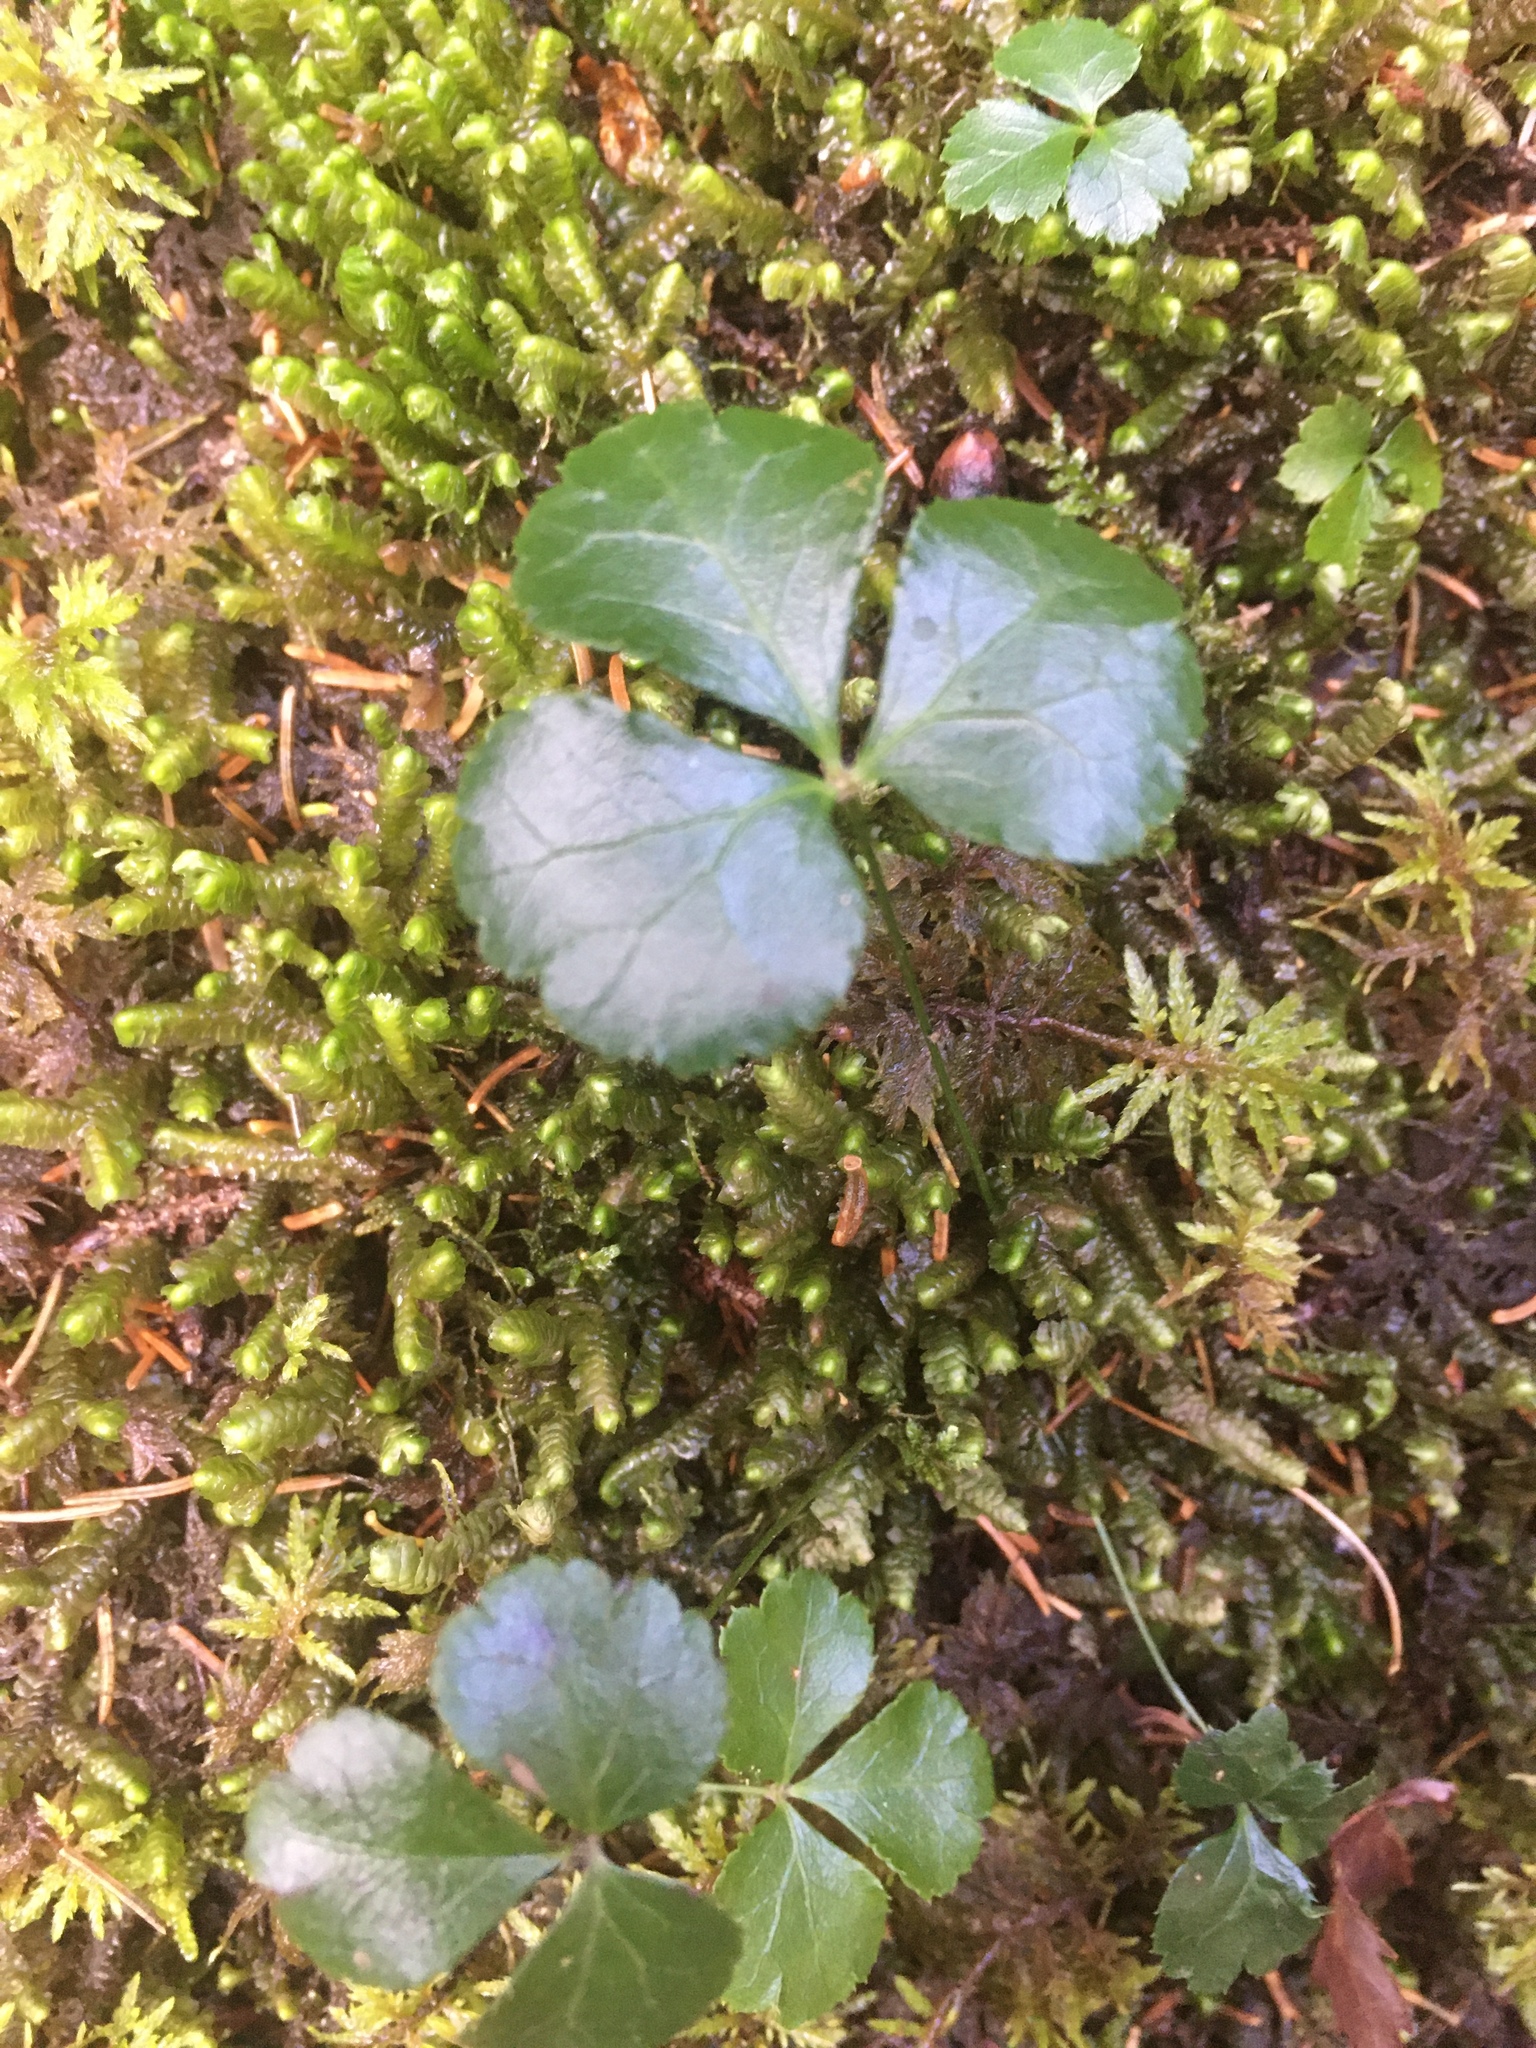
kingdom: Plantae
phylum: Tracheophyta
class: Magnoliopsida
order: Ranunculales
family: Ranunculaceae
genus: Coptis
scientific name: Coptis trifolia
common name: Canker-root
